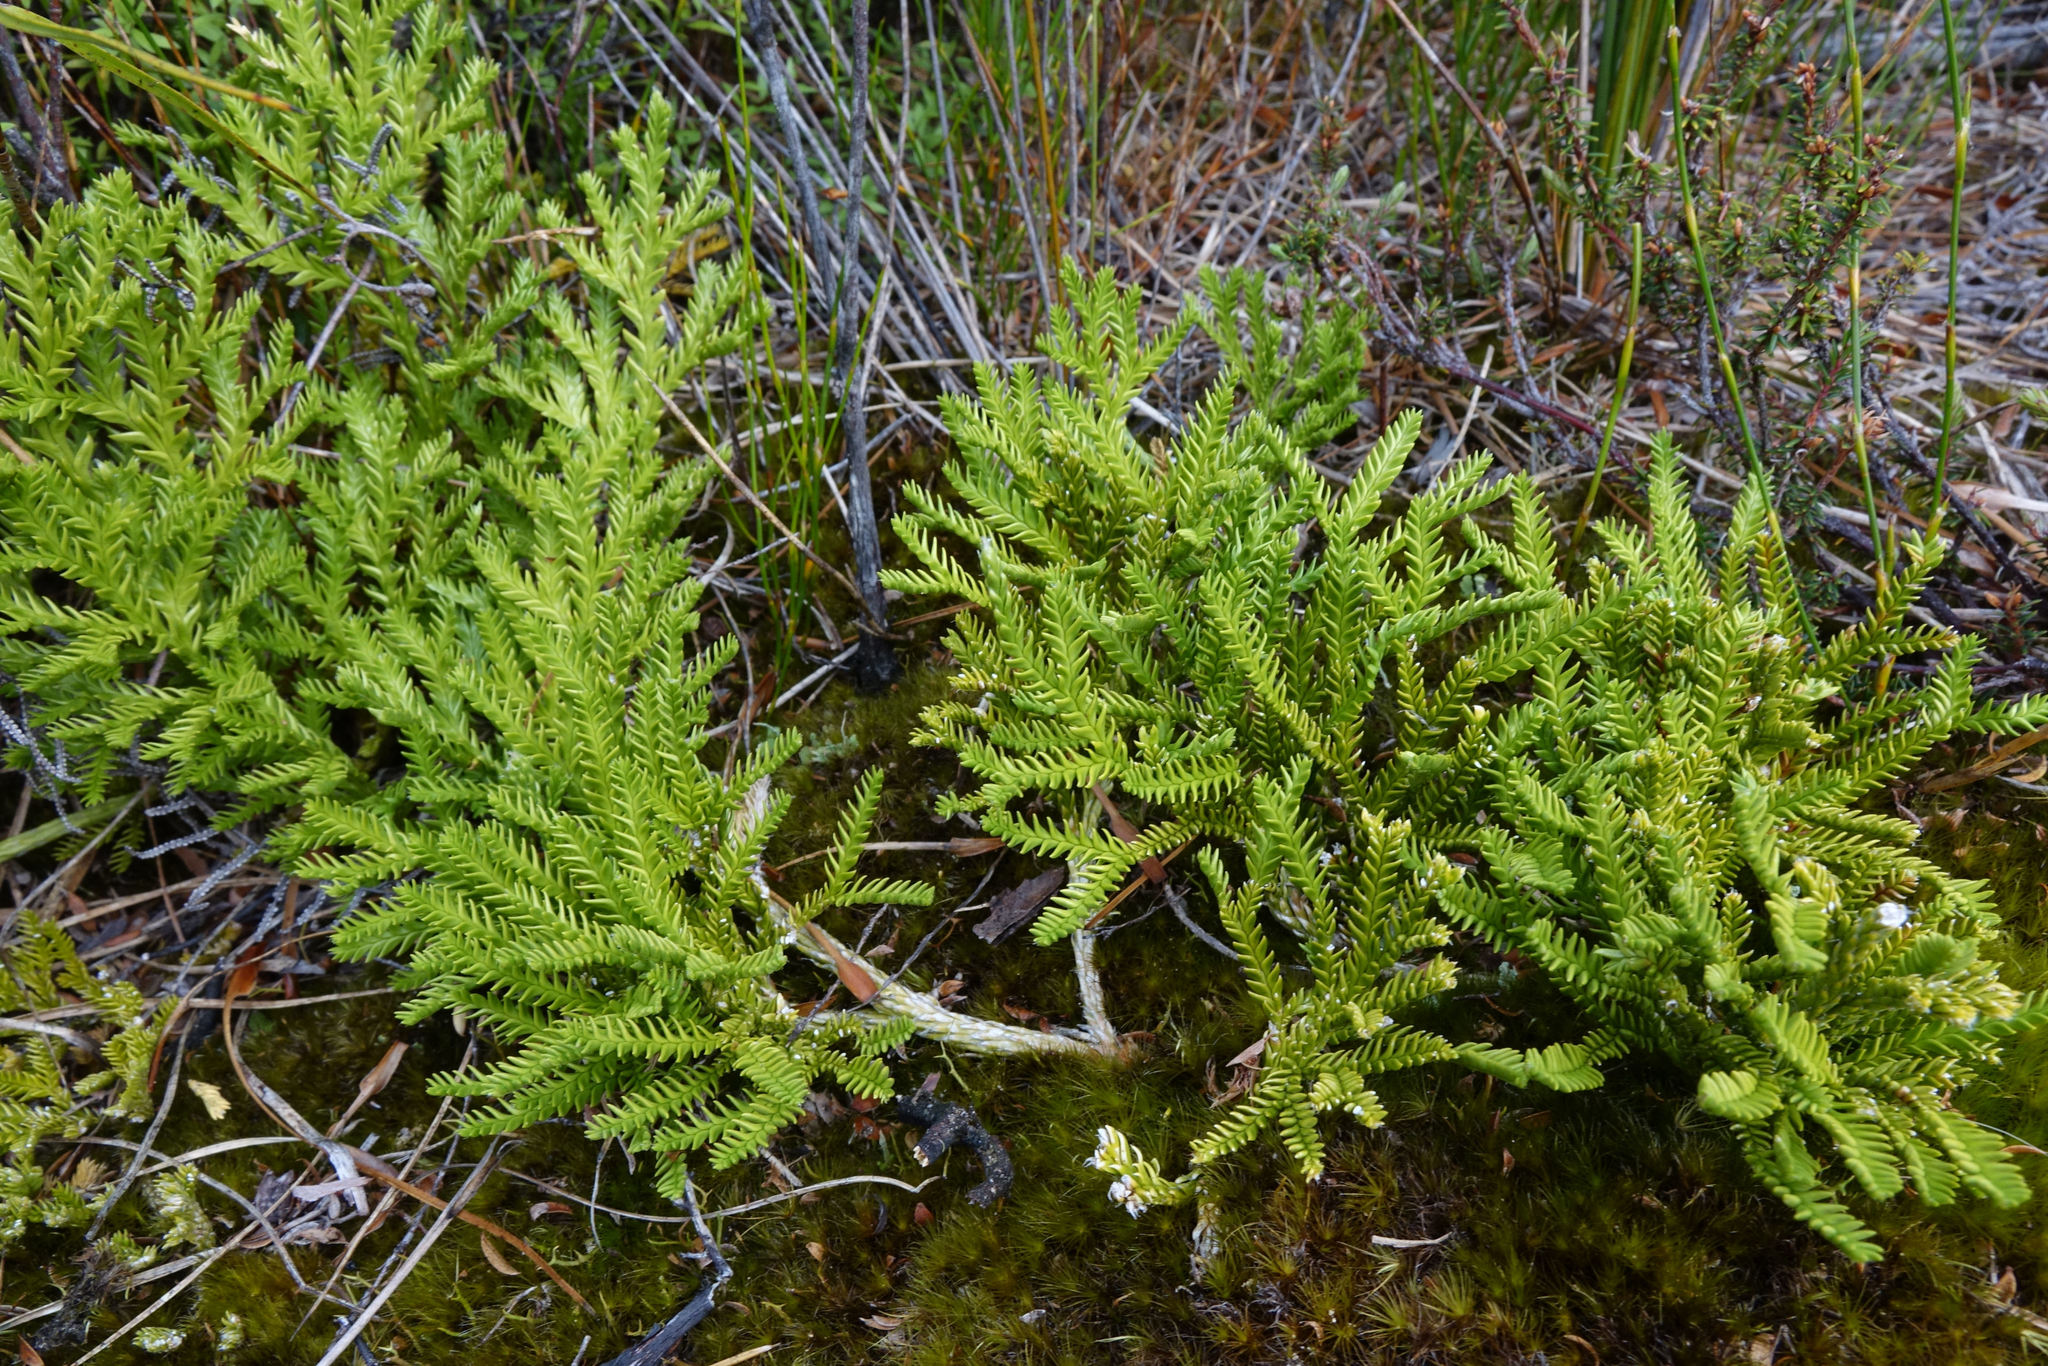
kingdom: Plantae
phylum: Tracheophyta
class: Lycopodiopsida
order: Lycopodiales
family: Lycopodiaceae
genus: Diphasium
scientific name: Diphasium scariosum
